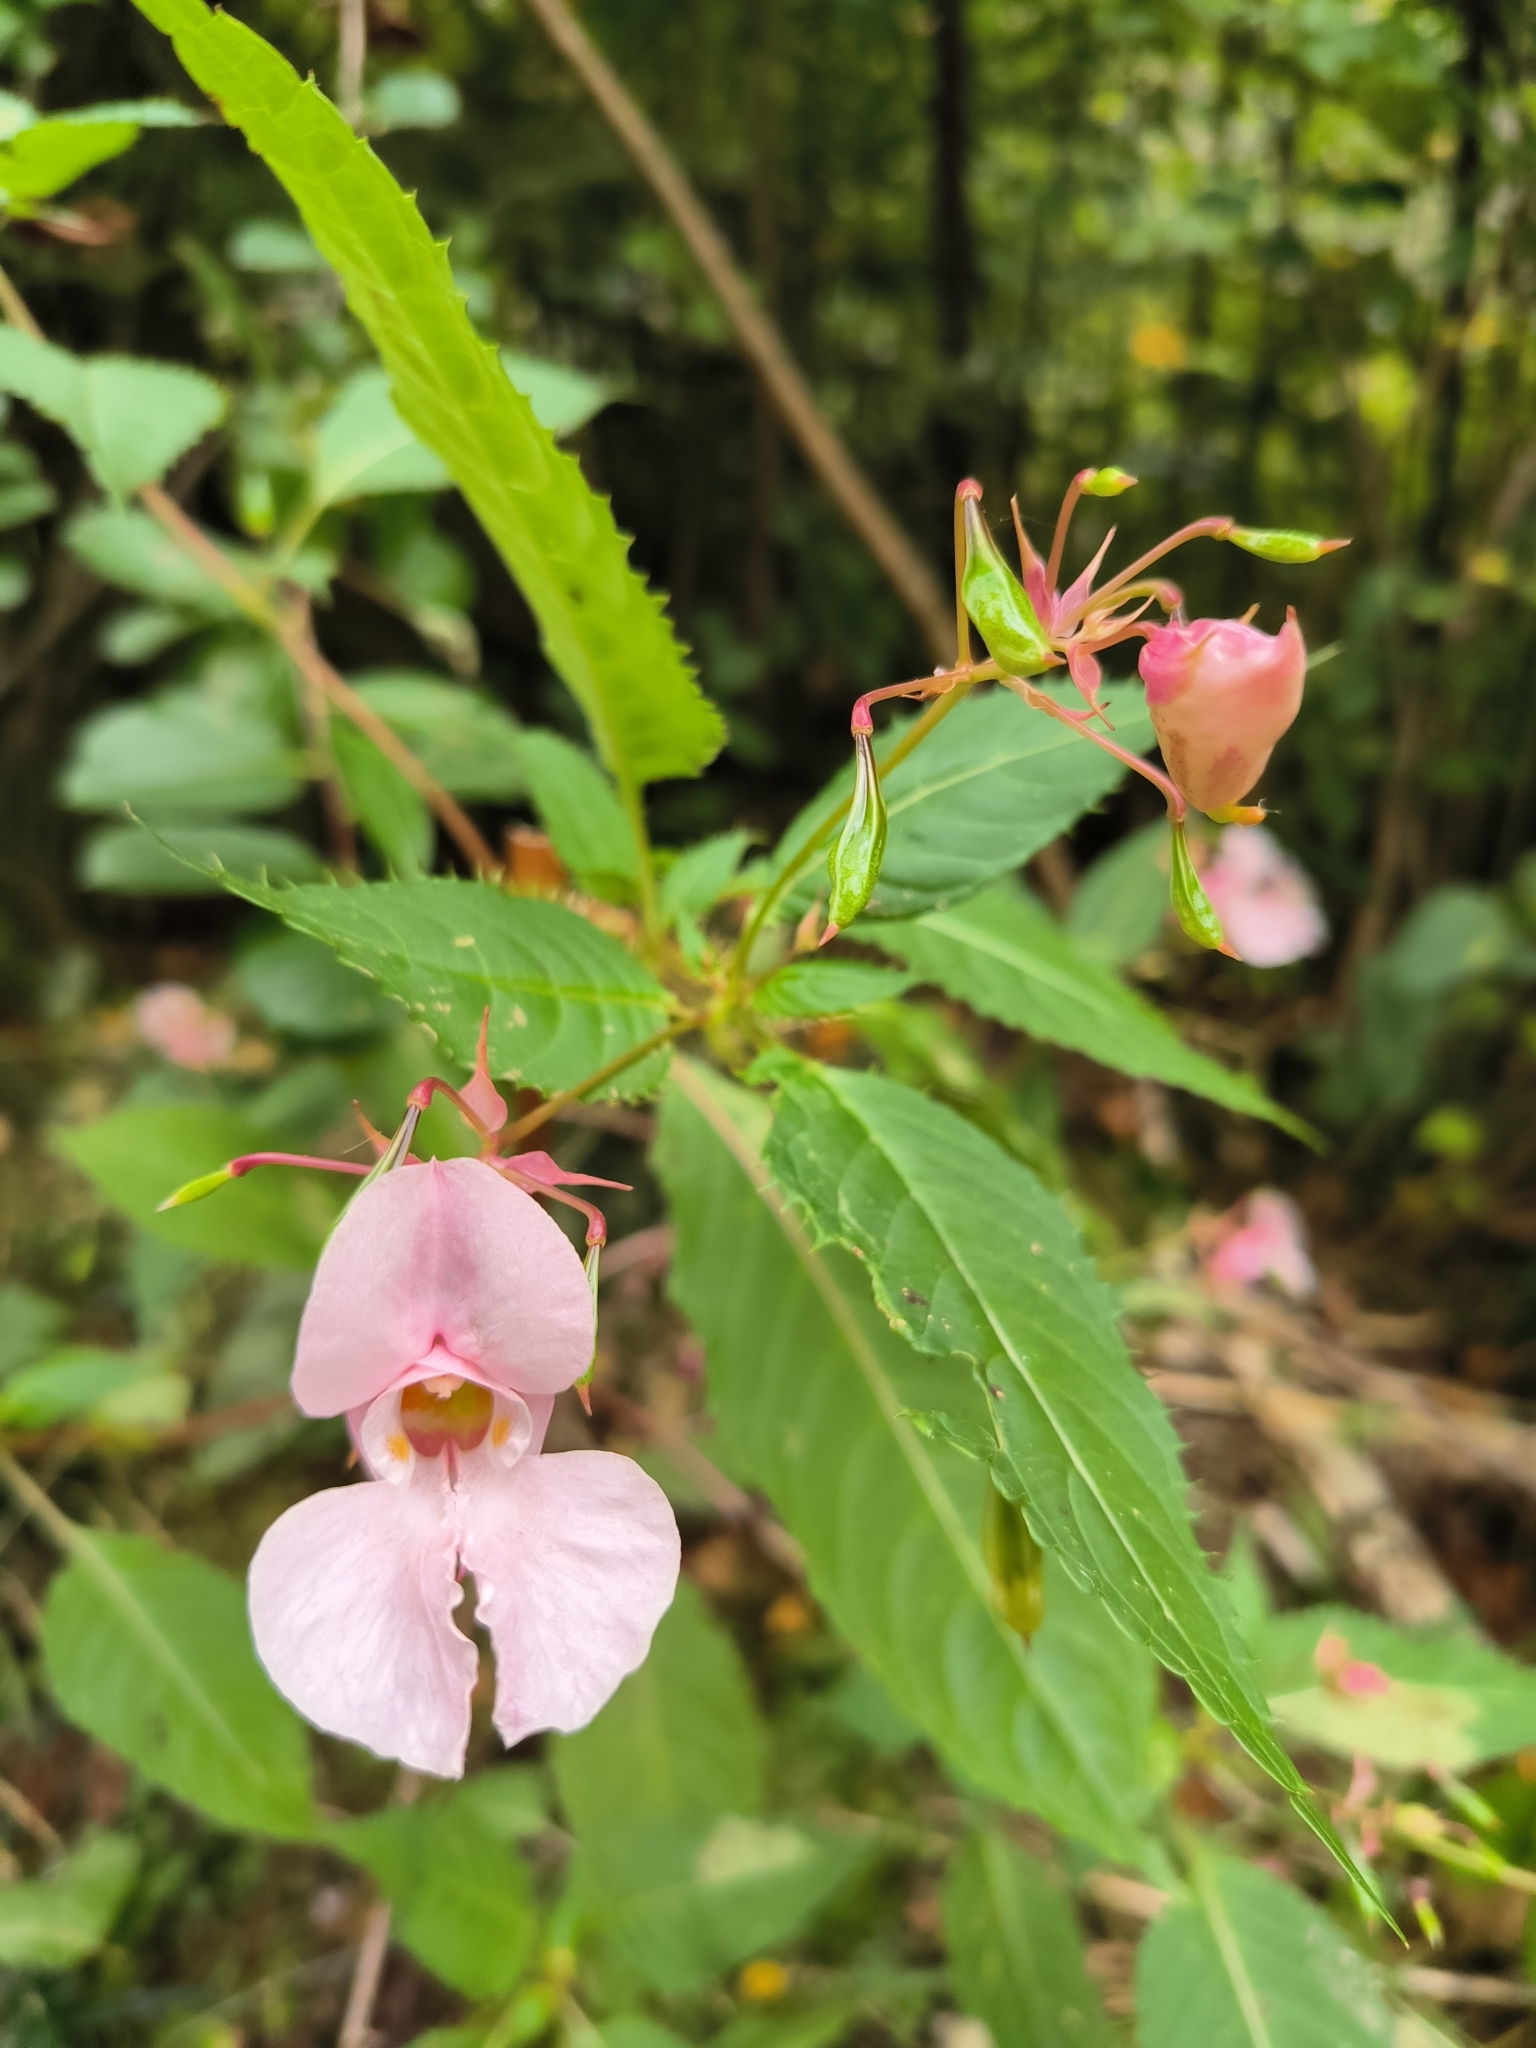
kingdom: Plantae
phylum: Tracheophyta
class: Magnoliopsida
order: Ericales
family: Balsaminaceae
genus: Impatiens
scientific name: Impatiens glandulifera
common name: Himalayan balsam
